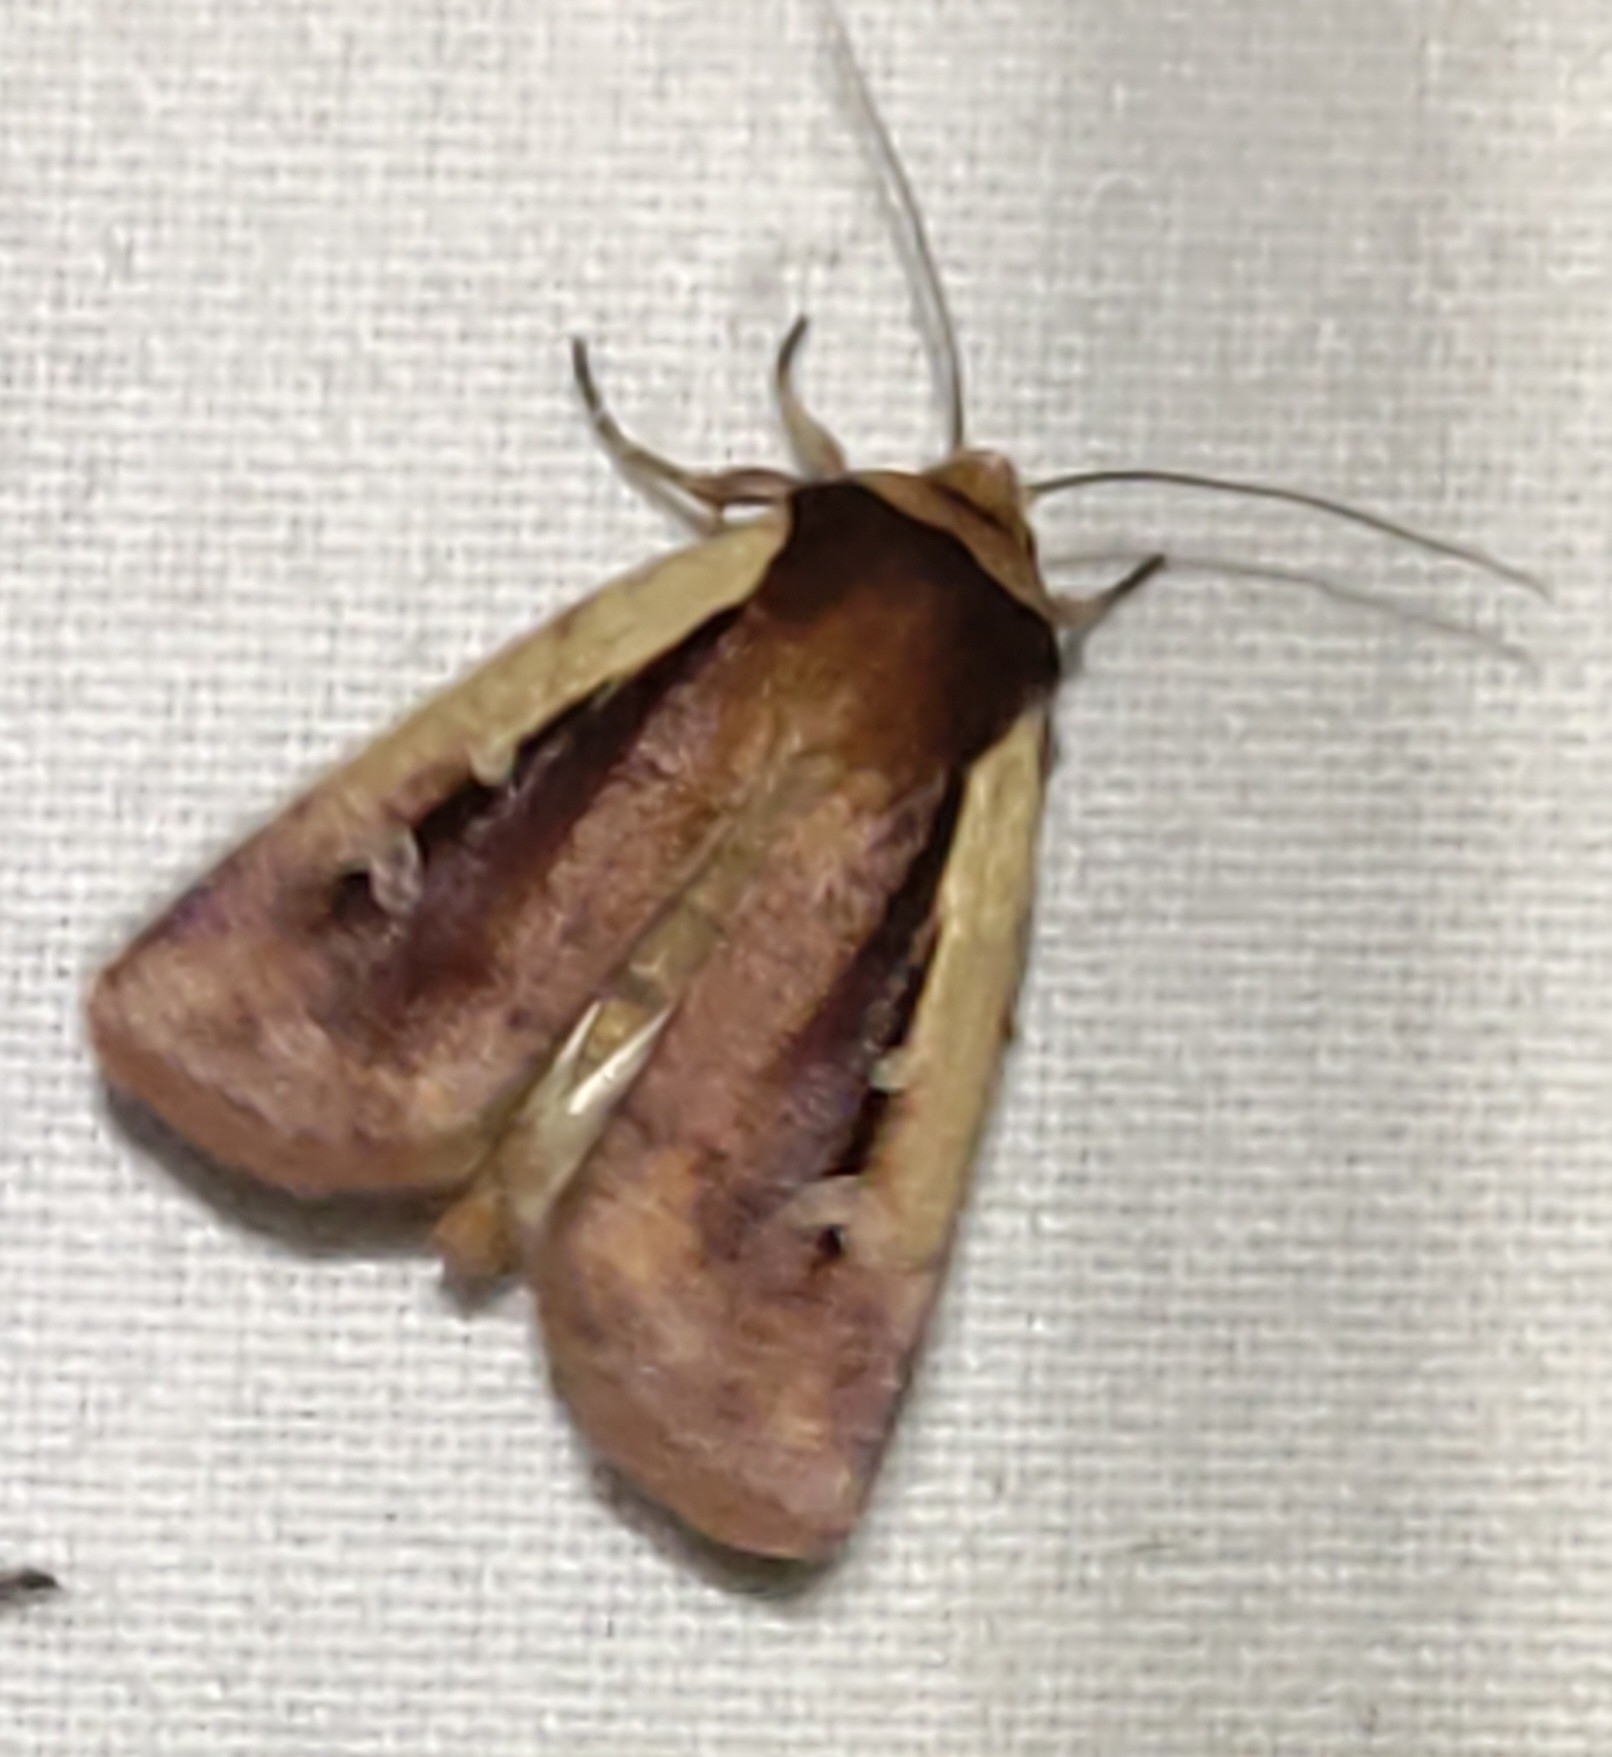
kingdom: Animalia
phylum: Arthropoda
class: Insecta
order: Lepidoptera
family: Noctuidae
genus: Ochropleura
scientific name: Ochropleura plecta
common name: Flame shoulder
